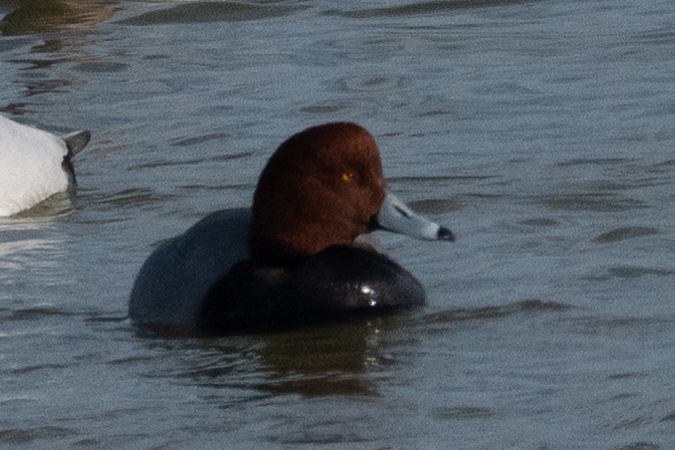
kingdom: Animalia
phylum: Chordata
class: Aves
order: Anseriformes
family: Anatidae
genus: Aythya
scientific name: Aythya americana
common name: Redhead
